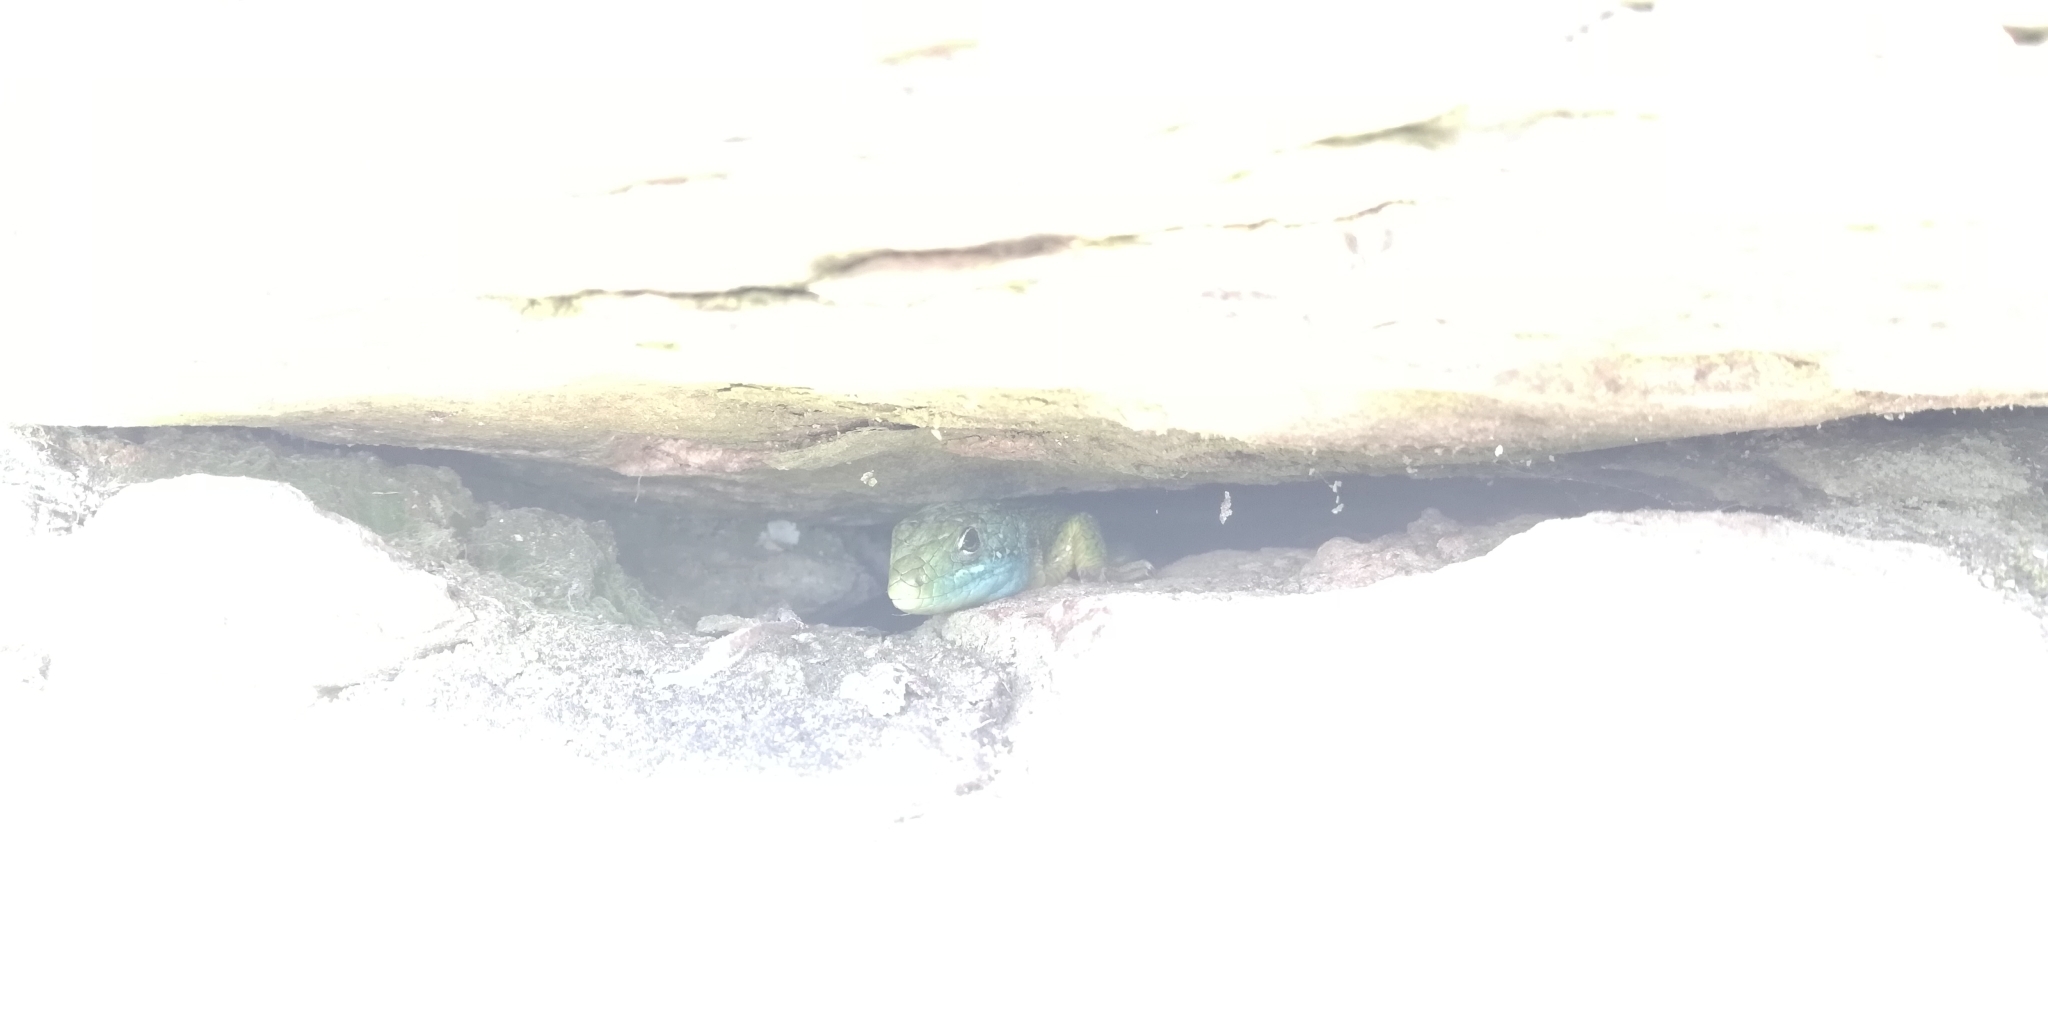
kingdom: Animalia
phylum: Chordata
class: Squamata
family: Lacertidae
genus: Lacerta
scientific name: Lacerta bilineata
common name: Western green lizard
